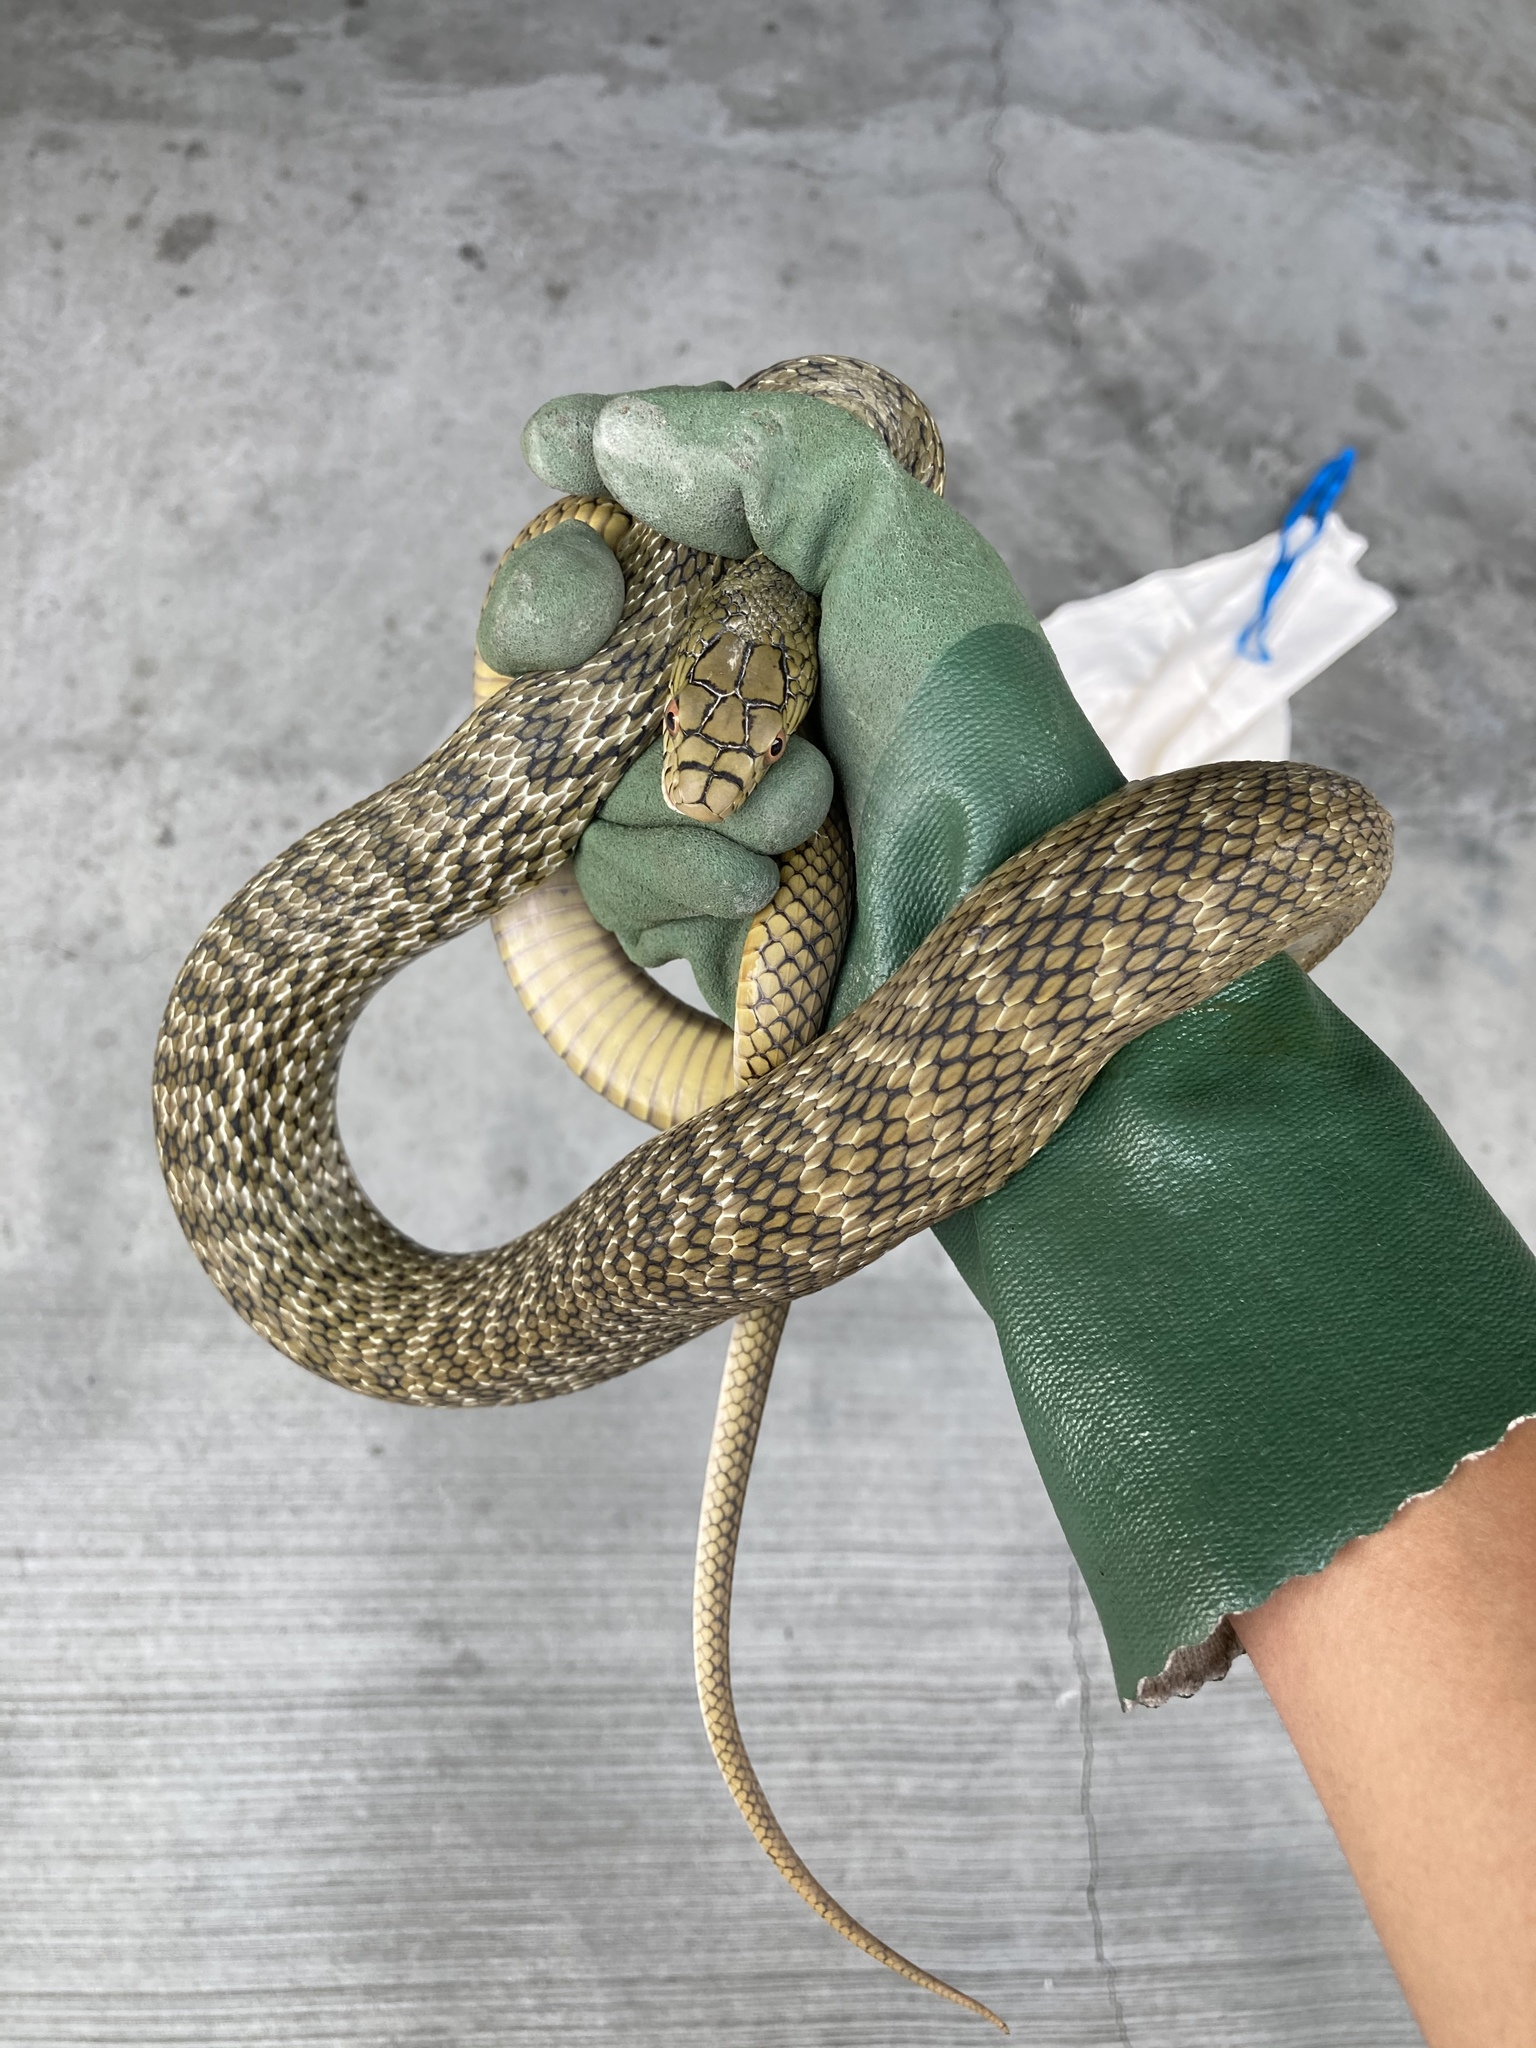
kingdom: Animalia
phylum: Chordata
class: Squamata
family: Colubridae
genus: Elaphe
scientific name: Elaphe carinata
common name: Taiwan stink snake
